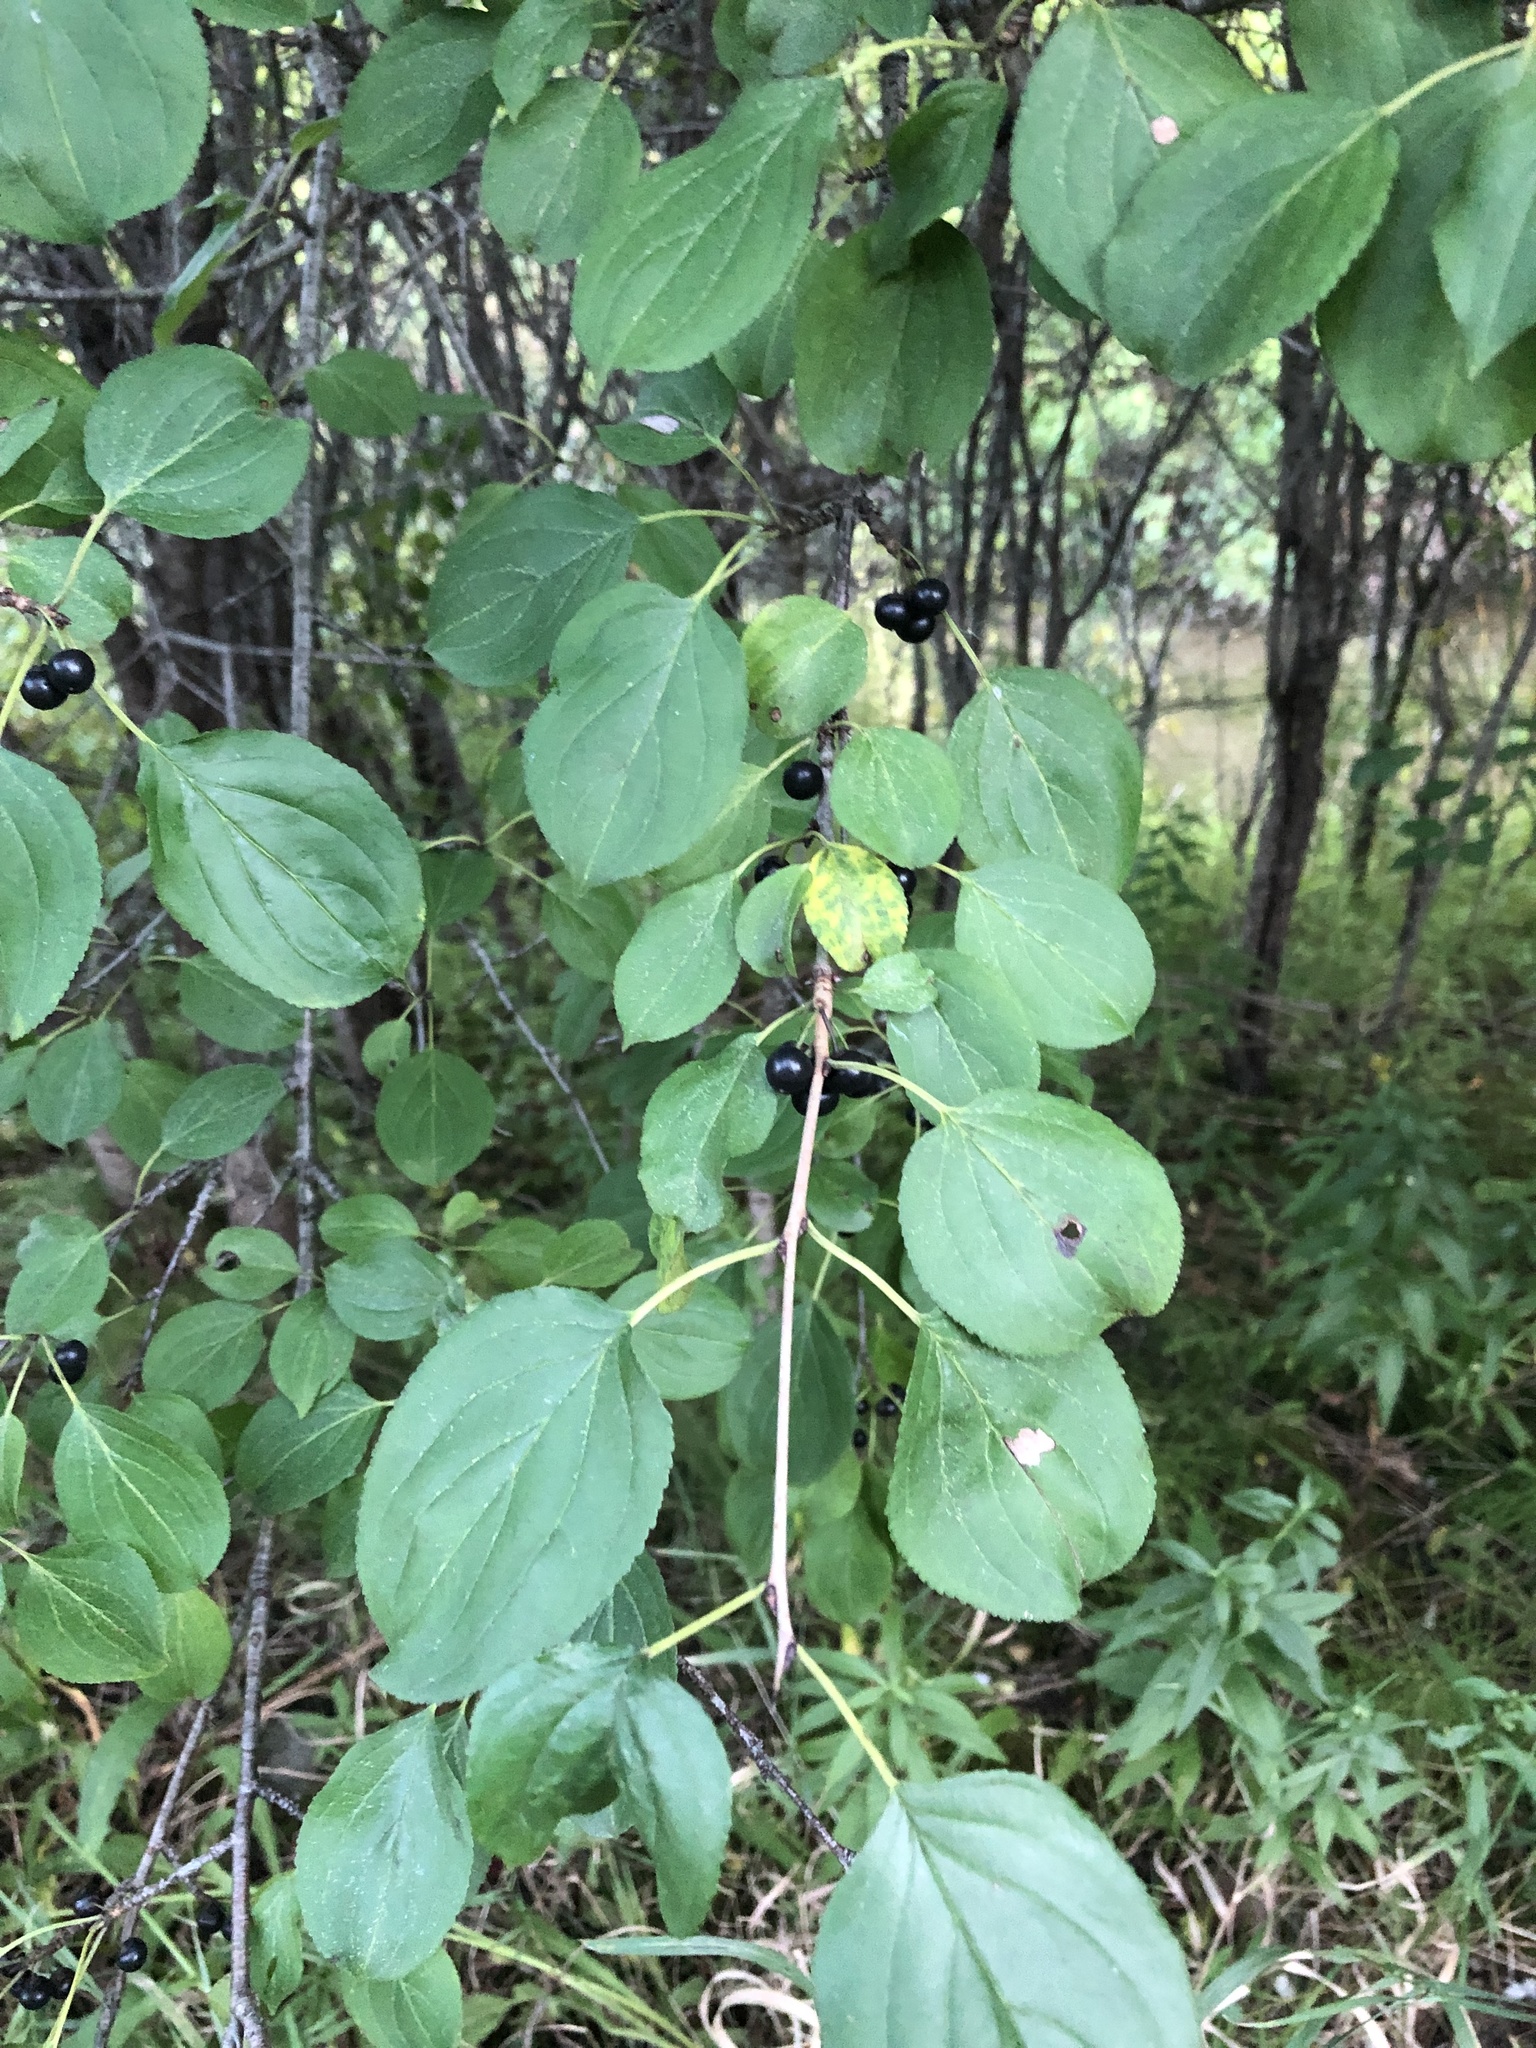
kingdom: Plantae
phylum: Tracheophyta
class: Magnoliopsida
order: Rosales
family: Rhamnaceae
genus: Rhamnus
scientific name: Rhamnus cathartica
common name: Common buckthorn
